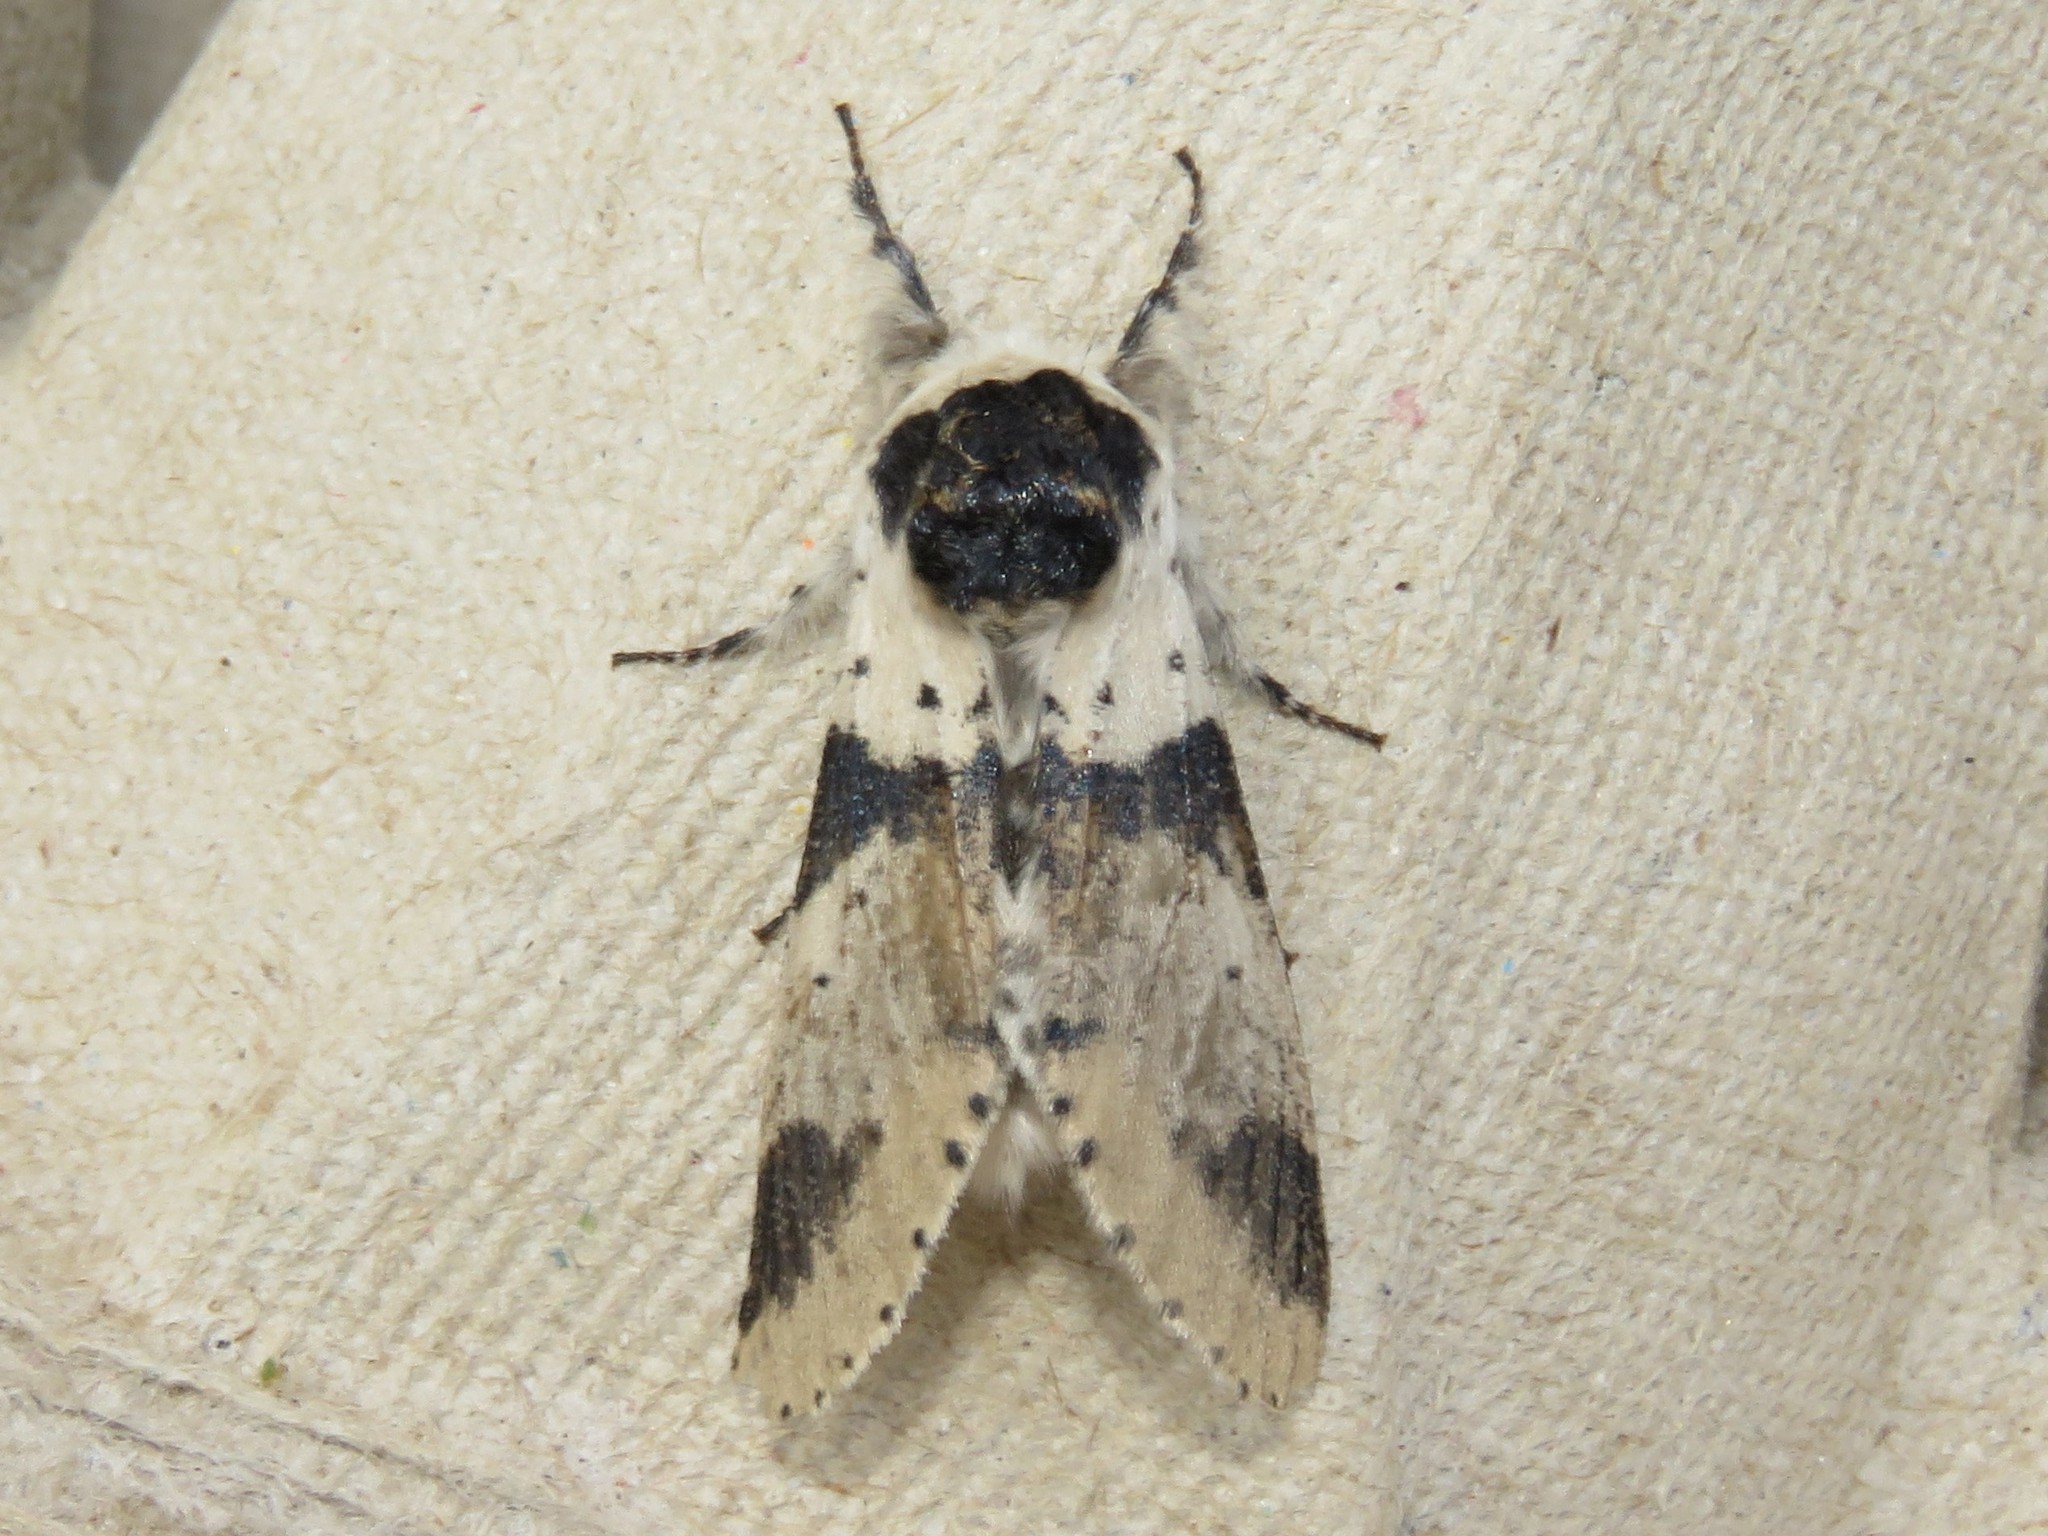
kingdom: Animalia
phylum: Arthropoda
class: Insecta
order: Lepidoptera
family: Notodontidae
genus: Furcula
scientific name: Furcula modesta
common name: Modest furcula moth
